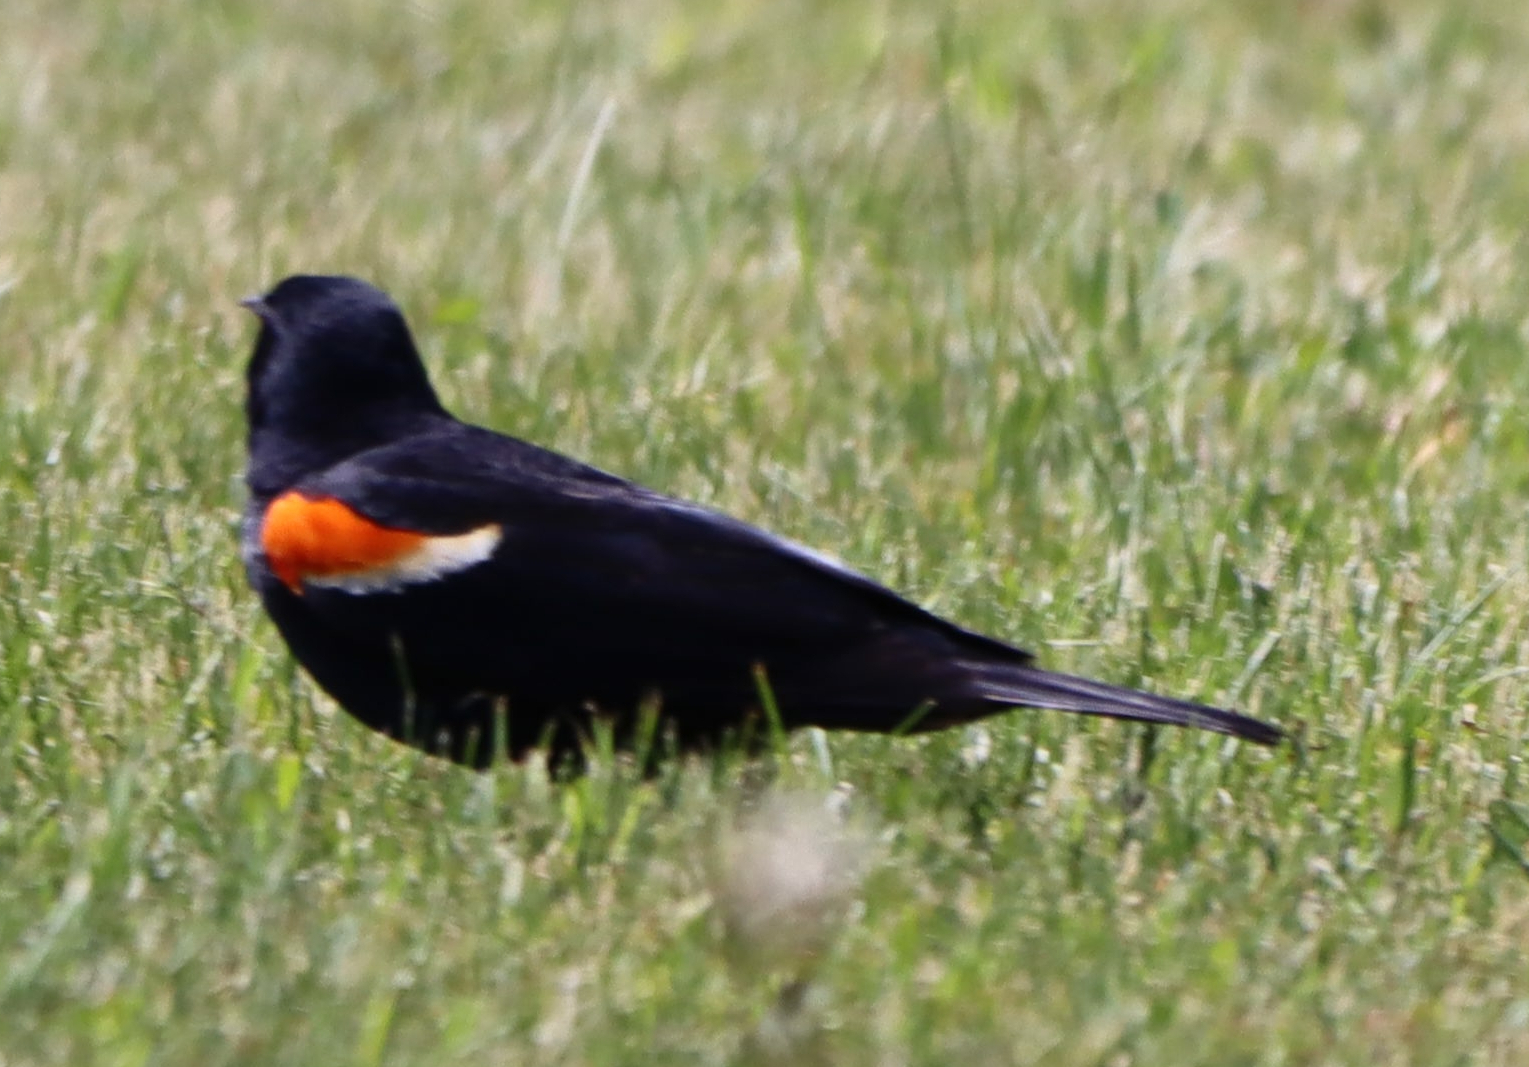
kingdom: Animalia
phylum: Chordata
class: Aves
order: Passeriformes
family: Icteridae
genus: Agelaius
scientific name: Agelaius phoeniceus
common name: Red-winged blackbird
